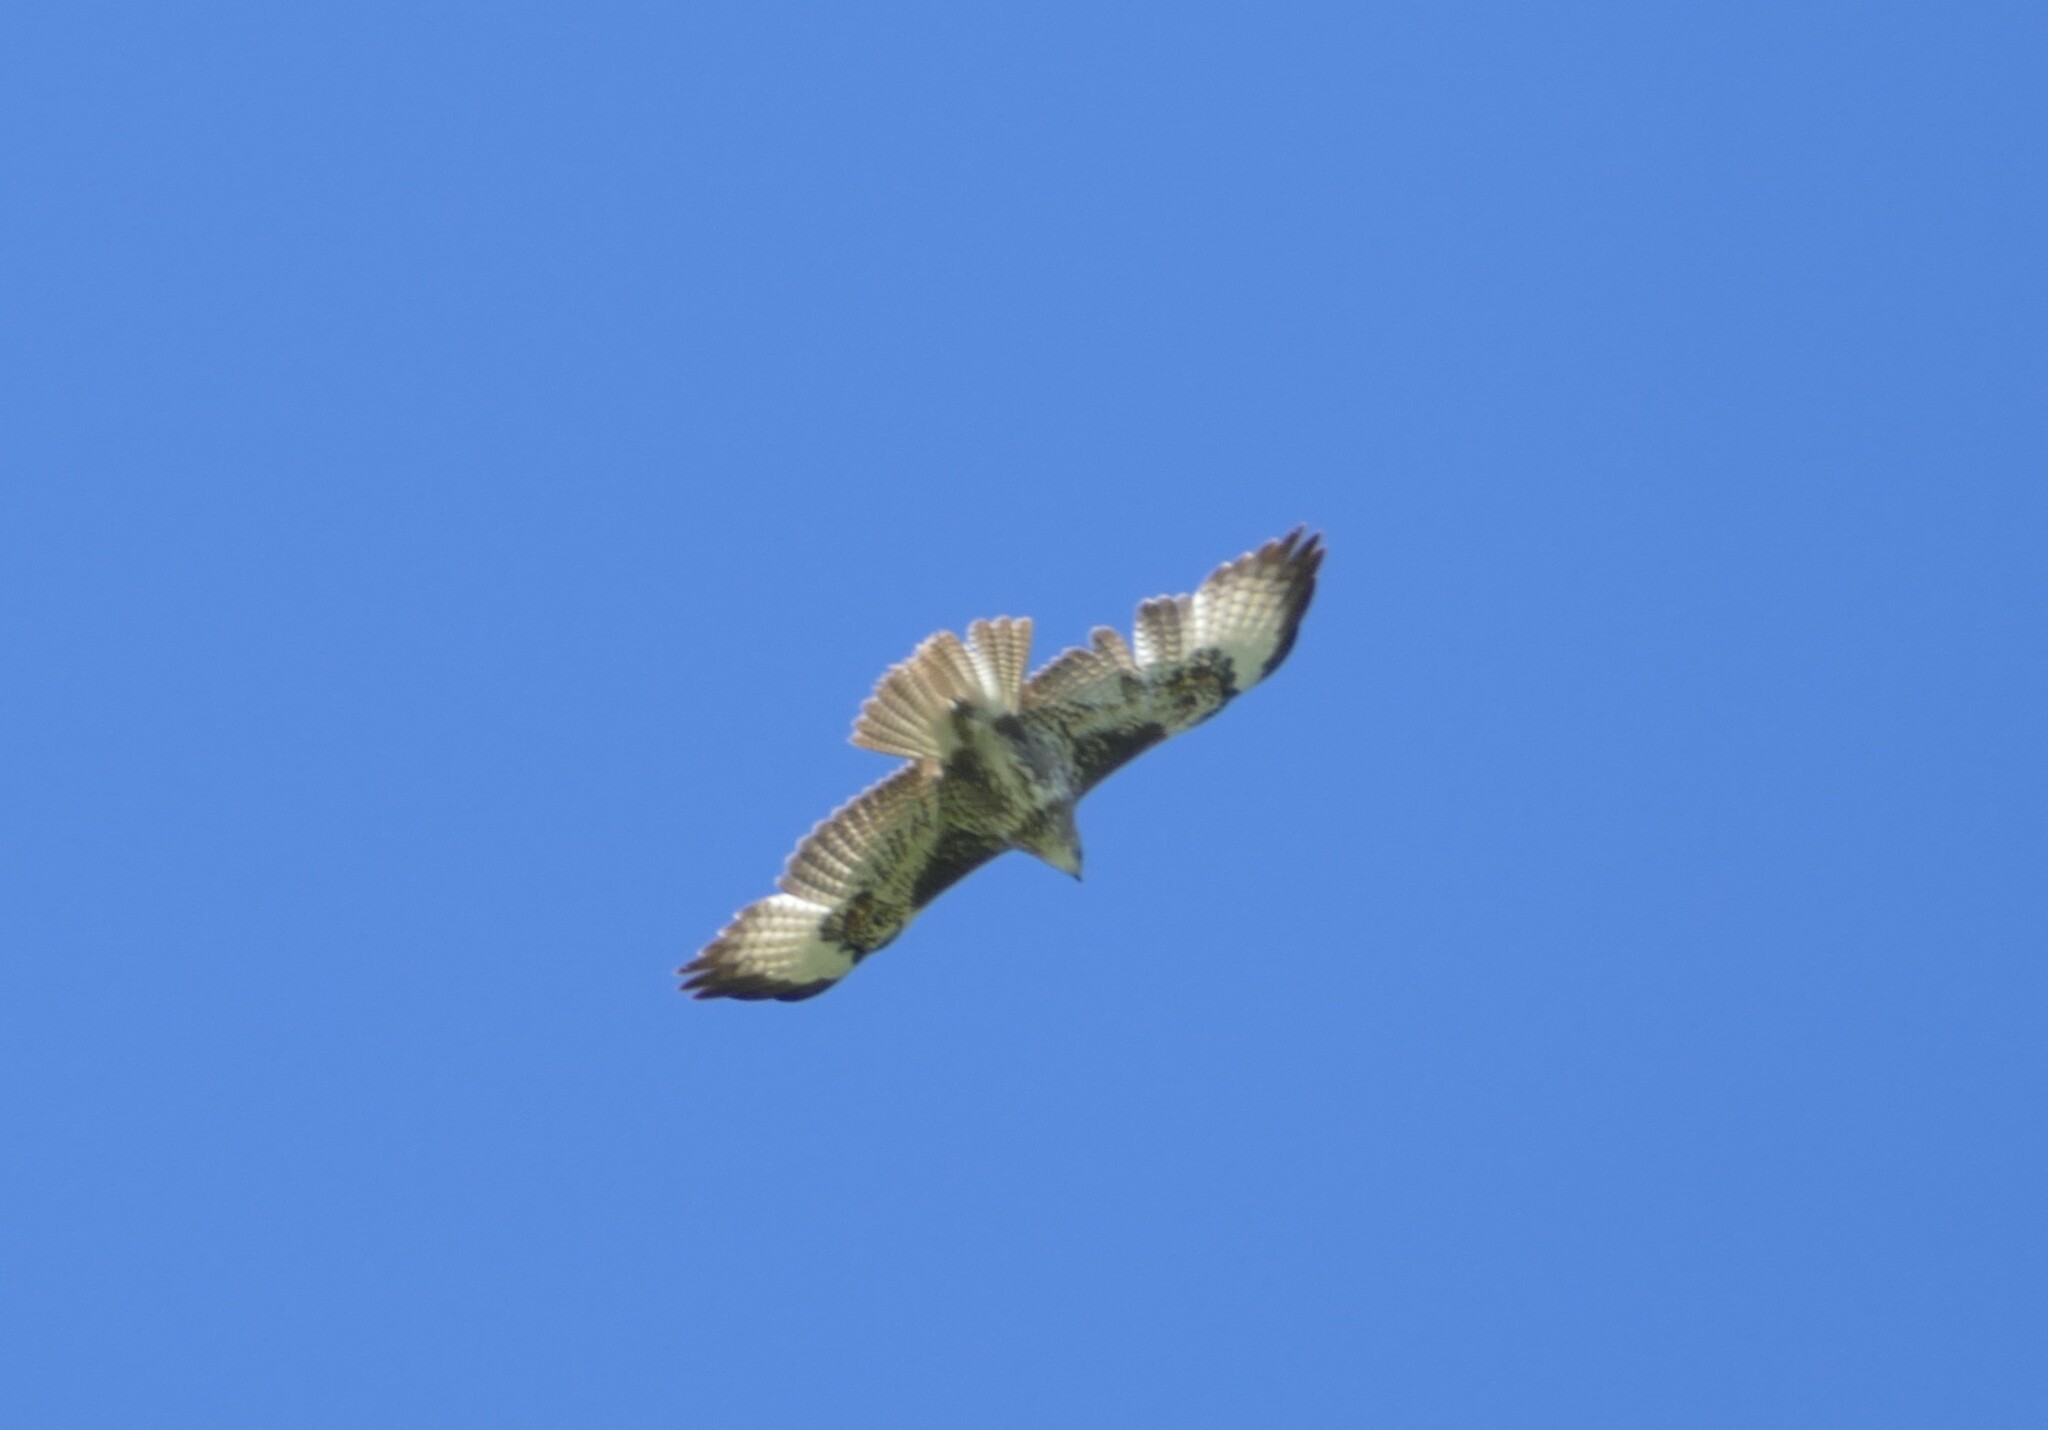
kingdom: Animalia
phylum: Chordata
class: Aves
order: Accipitriformes
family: Accipitridae
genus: Buteo
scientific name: Buteo buteo
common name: Common buzzard
